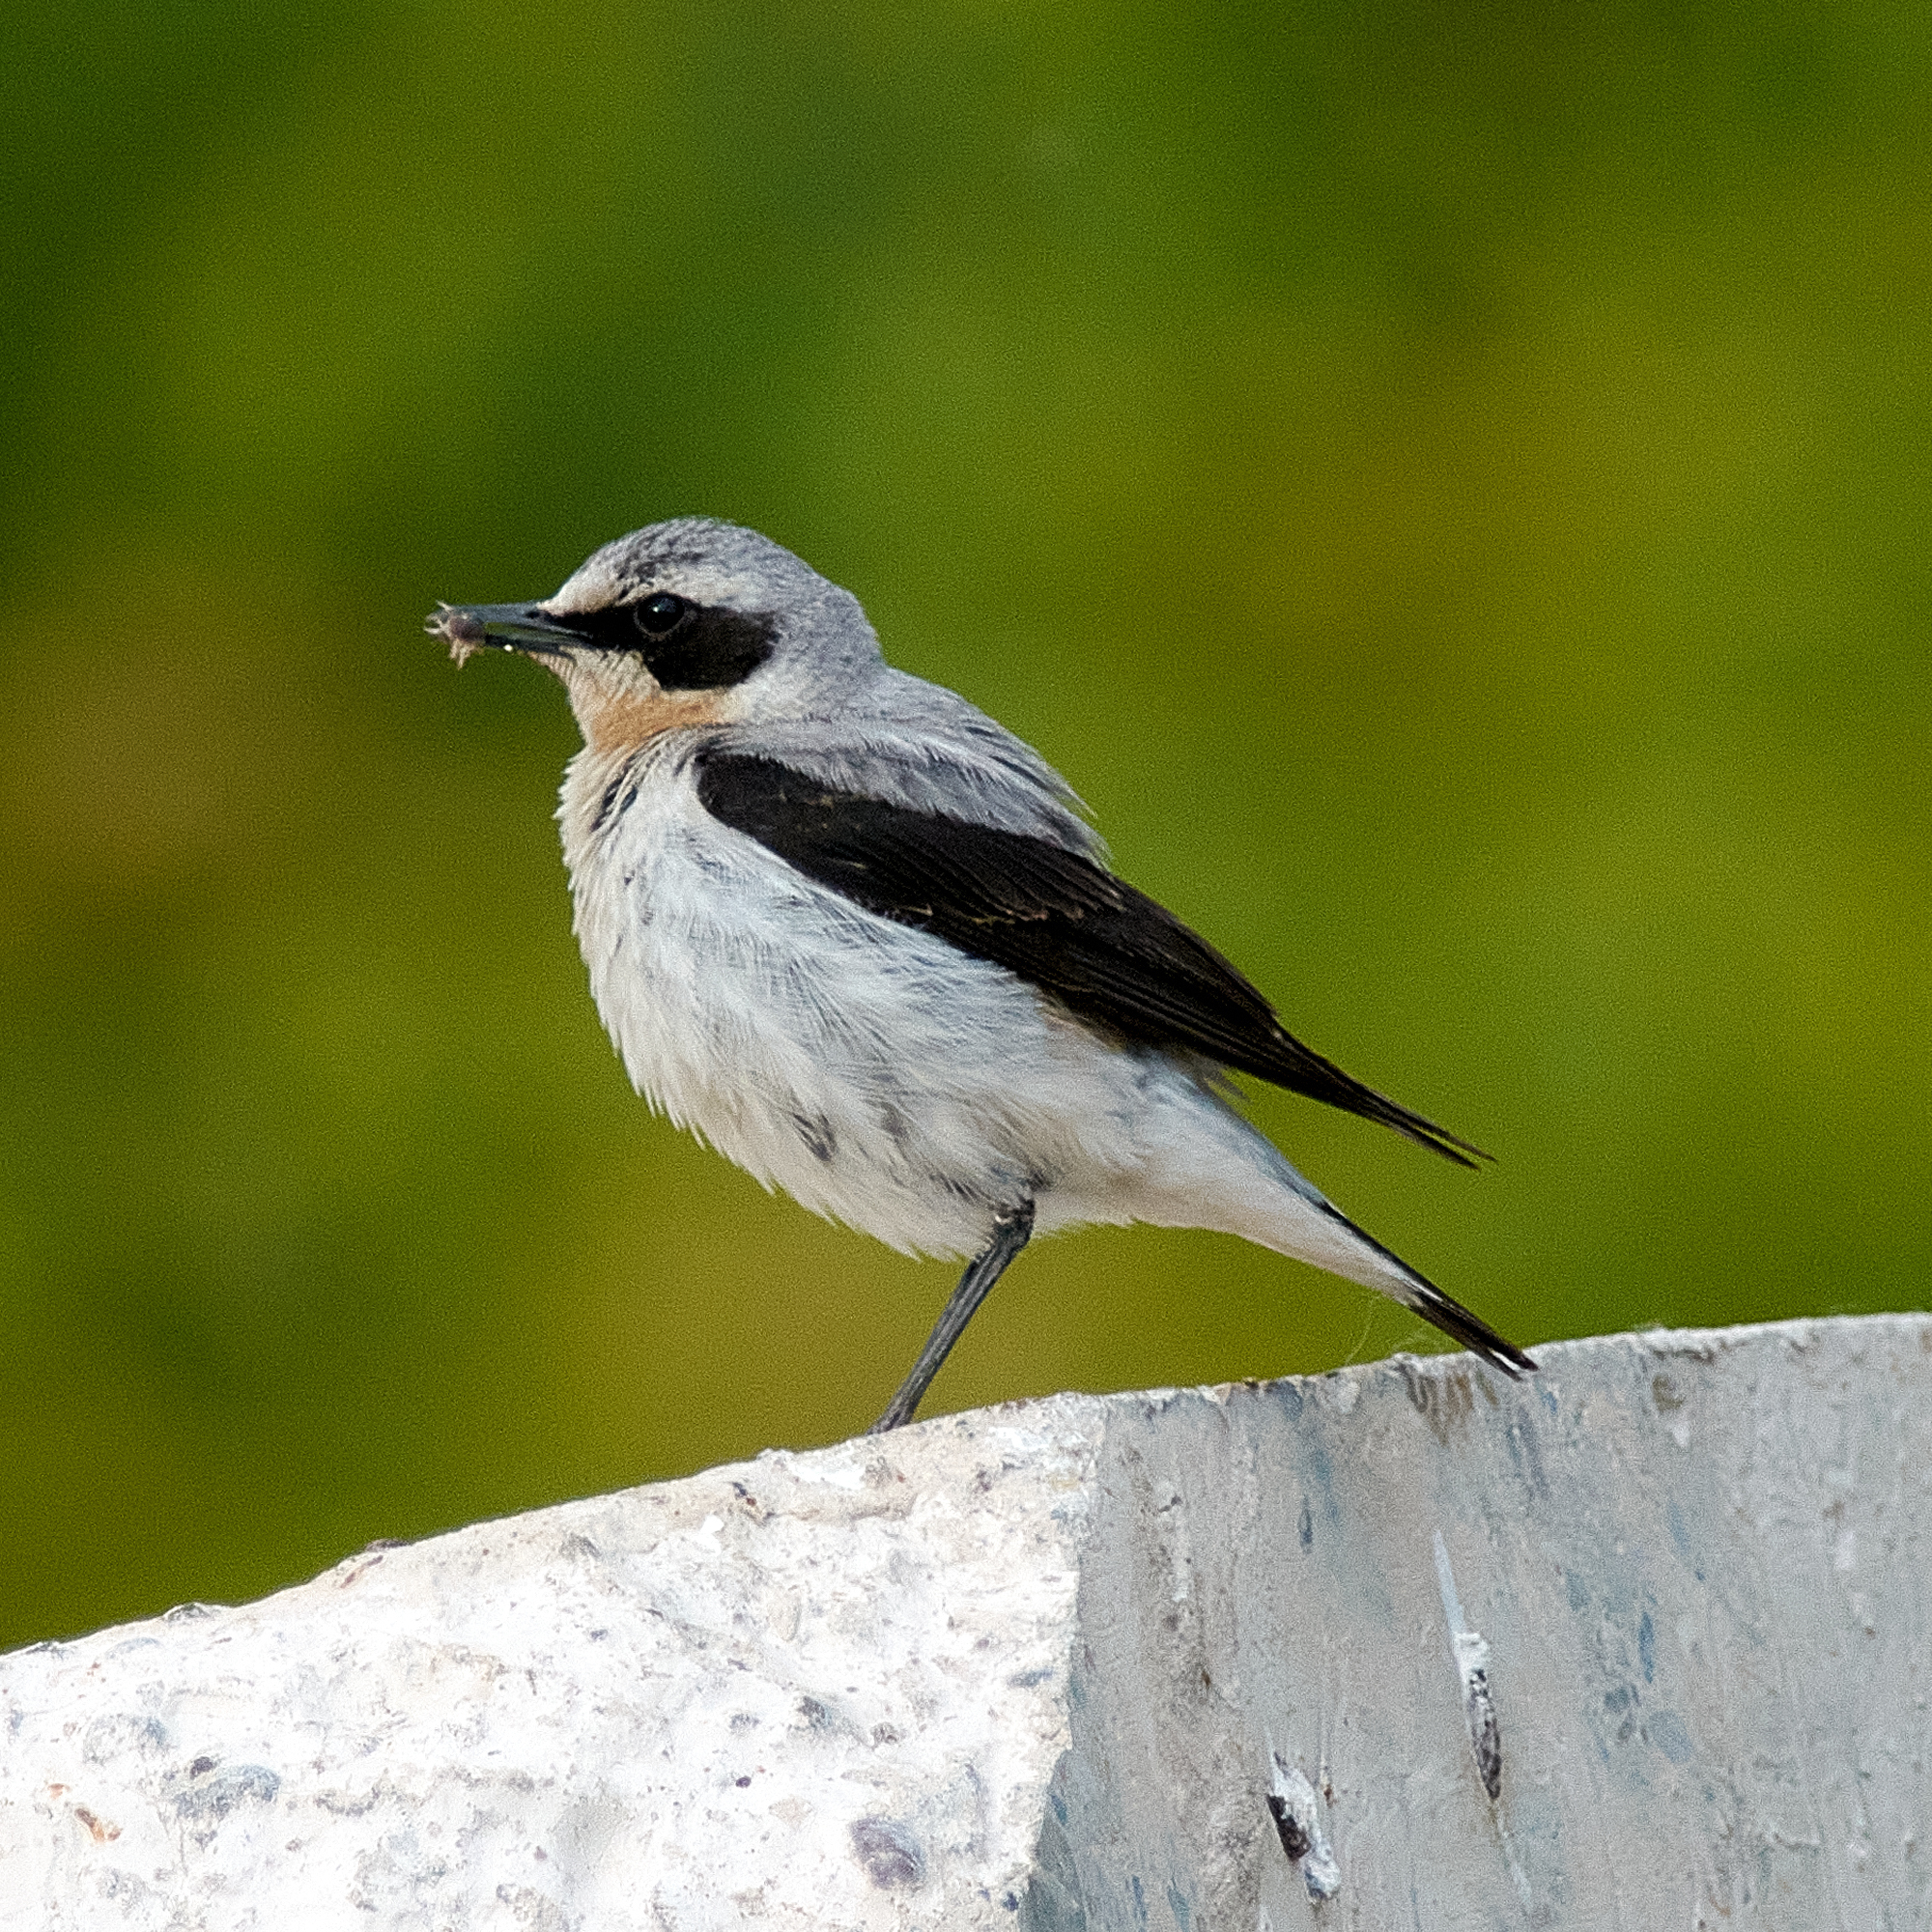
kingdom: Animalia
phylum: Chordata
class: Aves
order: Passeriformes
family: Muscicapidae
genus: Oenanthe
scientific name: Oenanthe oenanthe
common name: Northern wheatear
